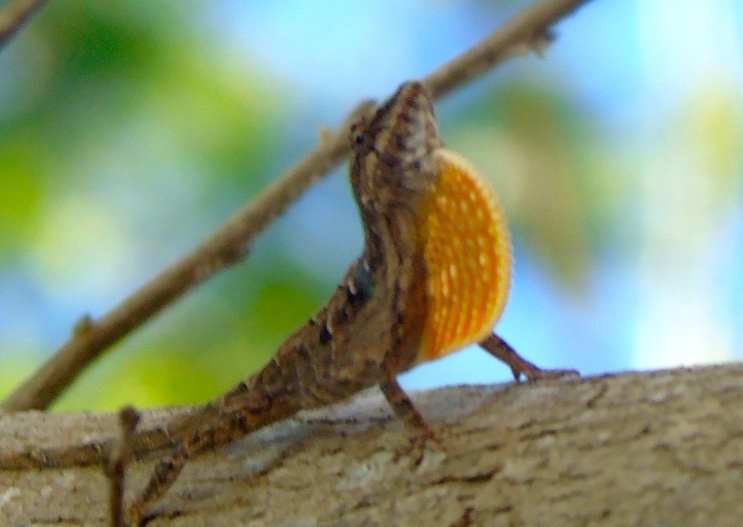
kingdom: Animalia
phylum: Chordata
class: Squamata
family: Dactyloidae
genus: Anolis
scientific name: Anolis nebulosus
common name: Clouded anole
